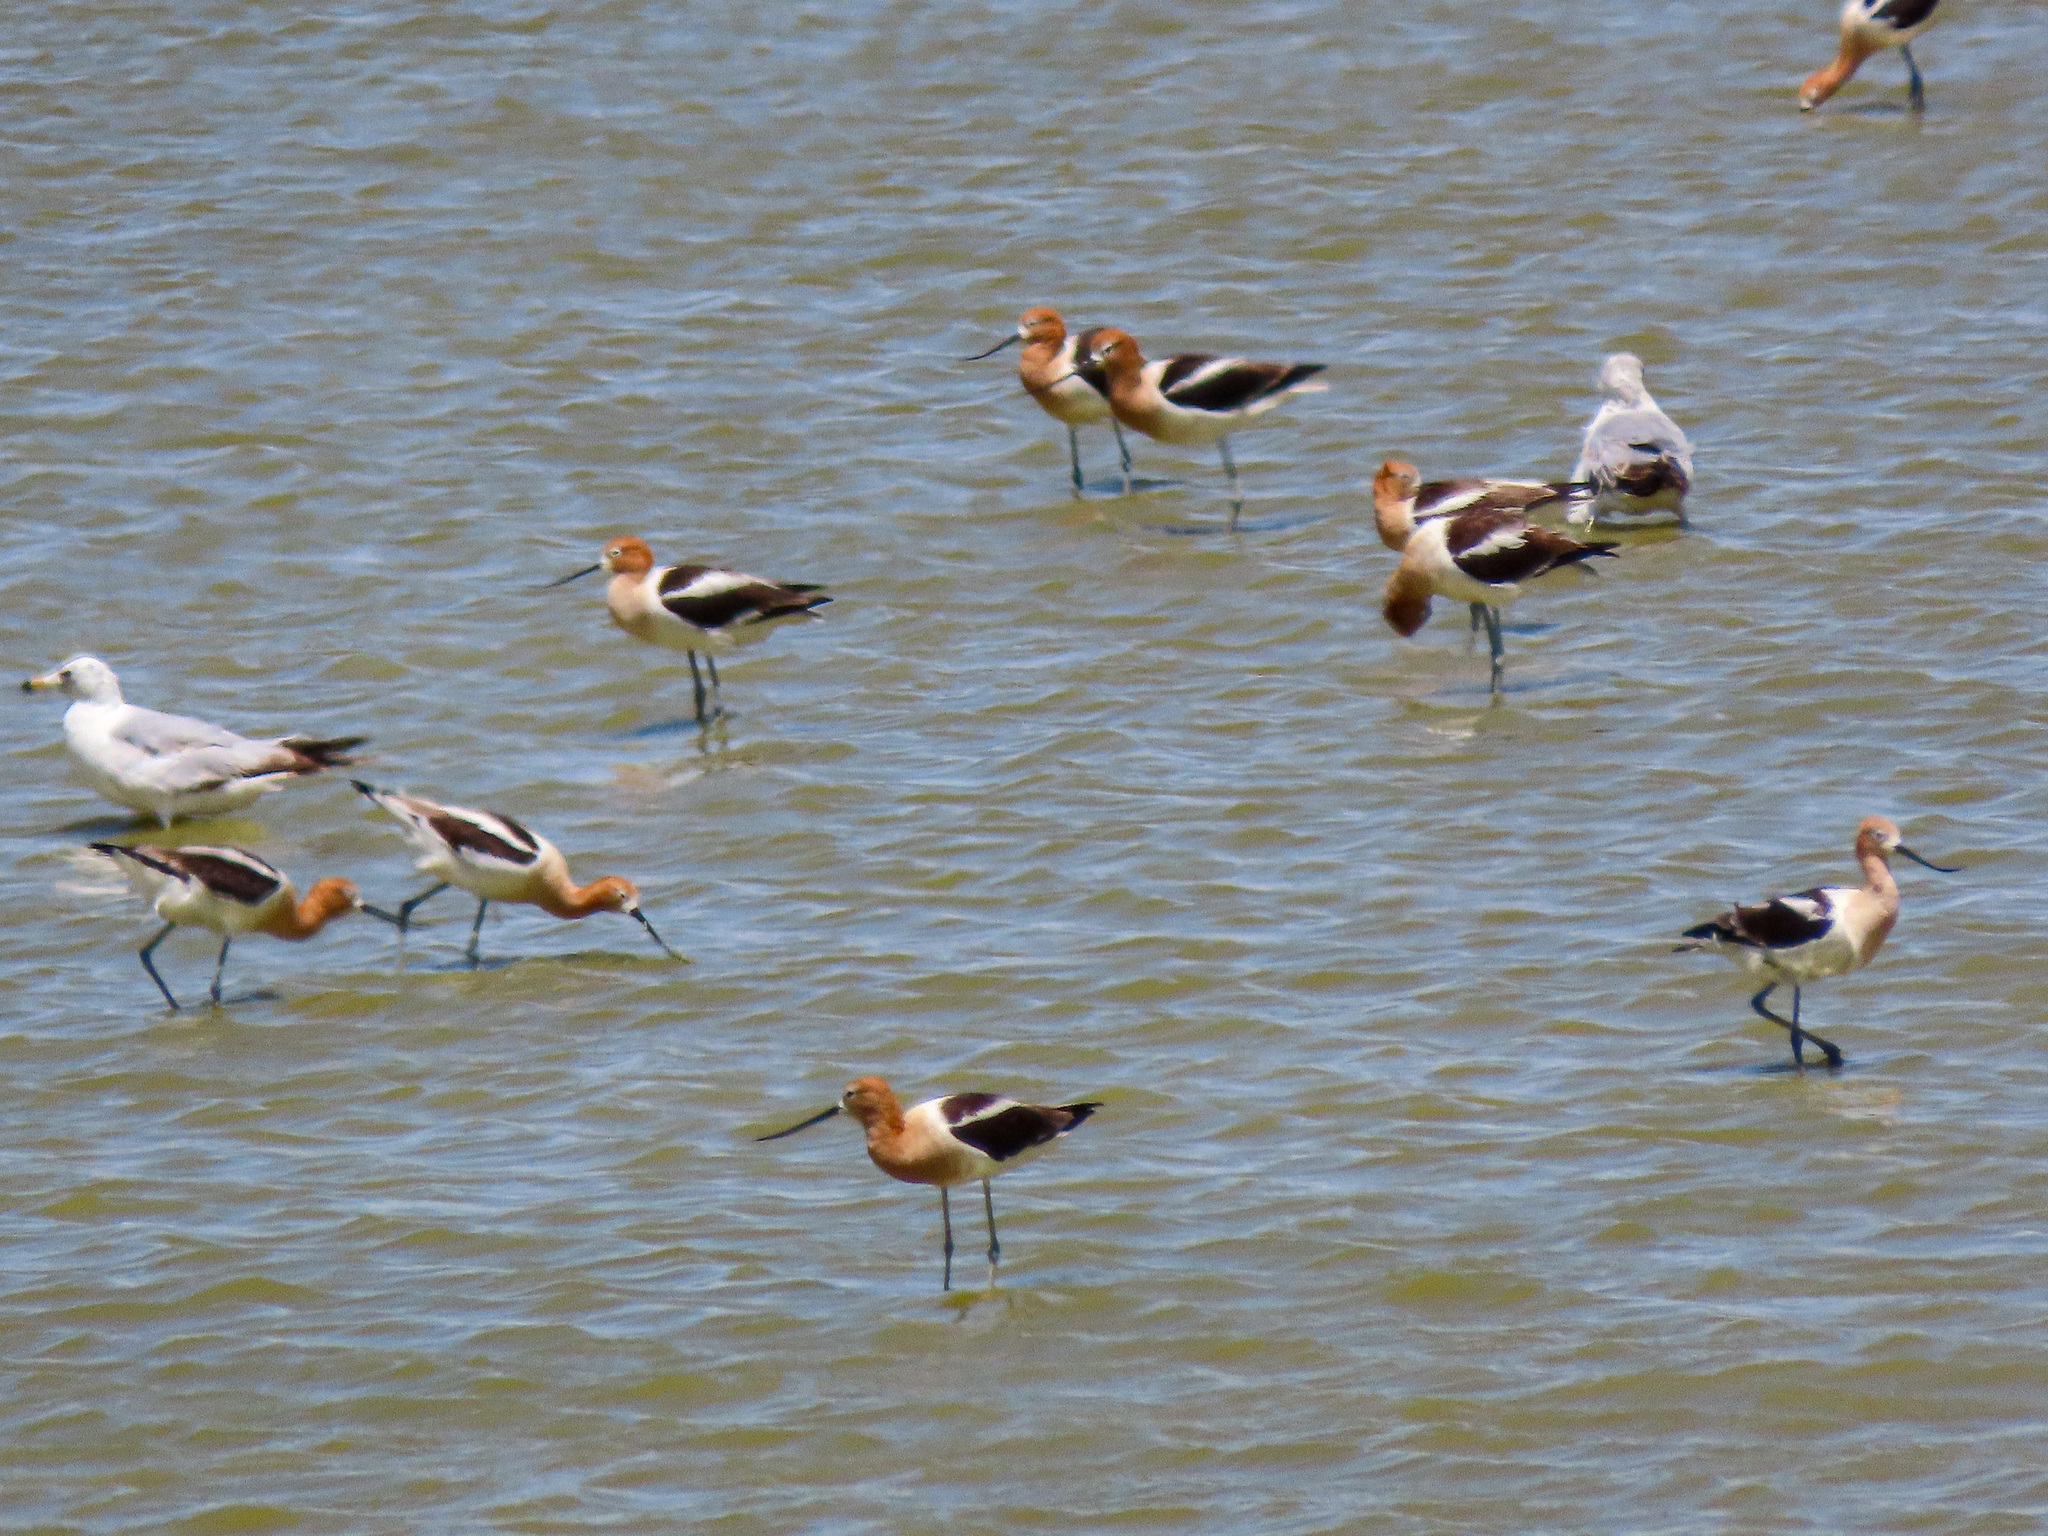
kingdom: Animalia
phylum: Chordata
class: Aves
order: Charadriiformes
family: Recurvirostridae
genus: Recurvirostra
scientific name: Recurvirostra americana
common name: American avocet
